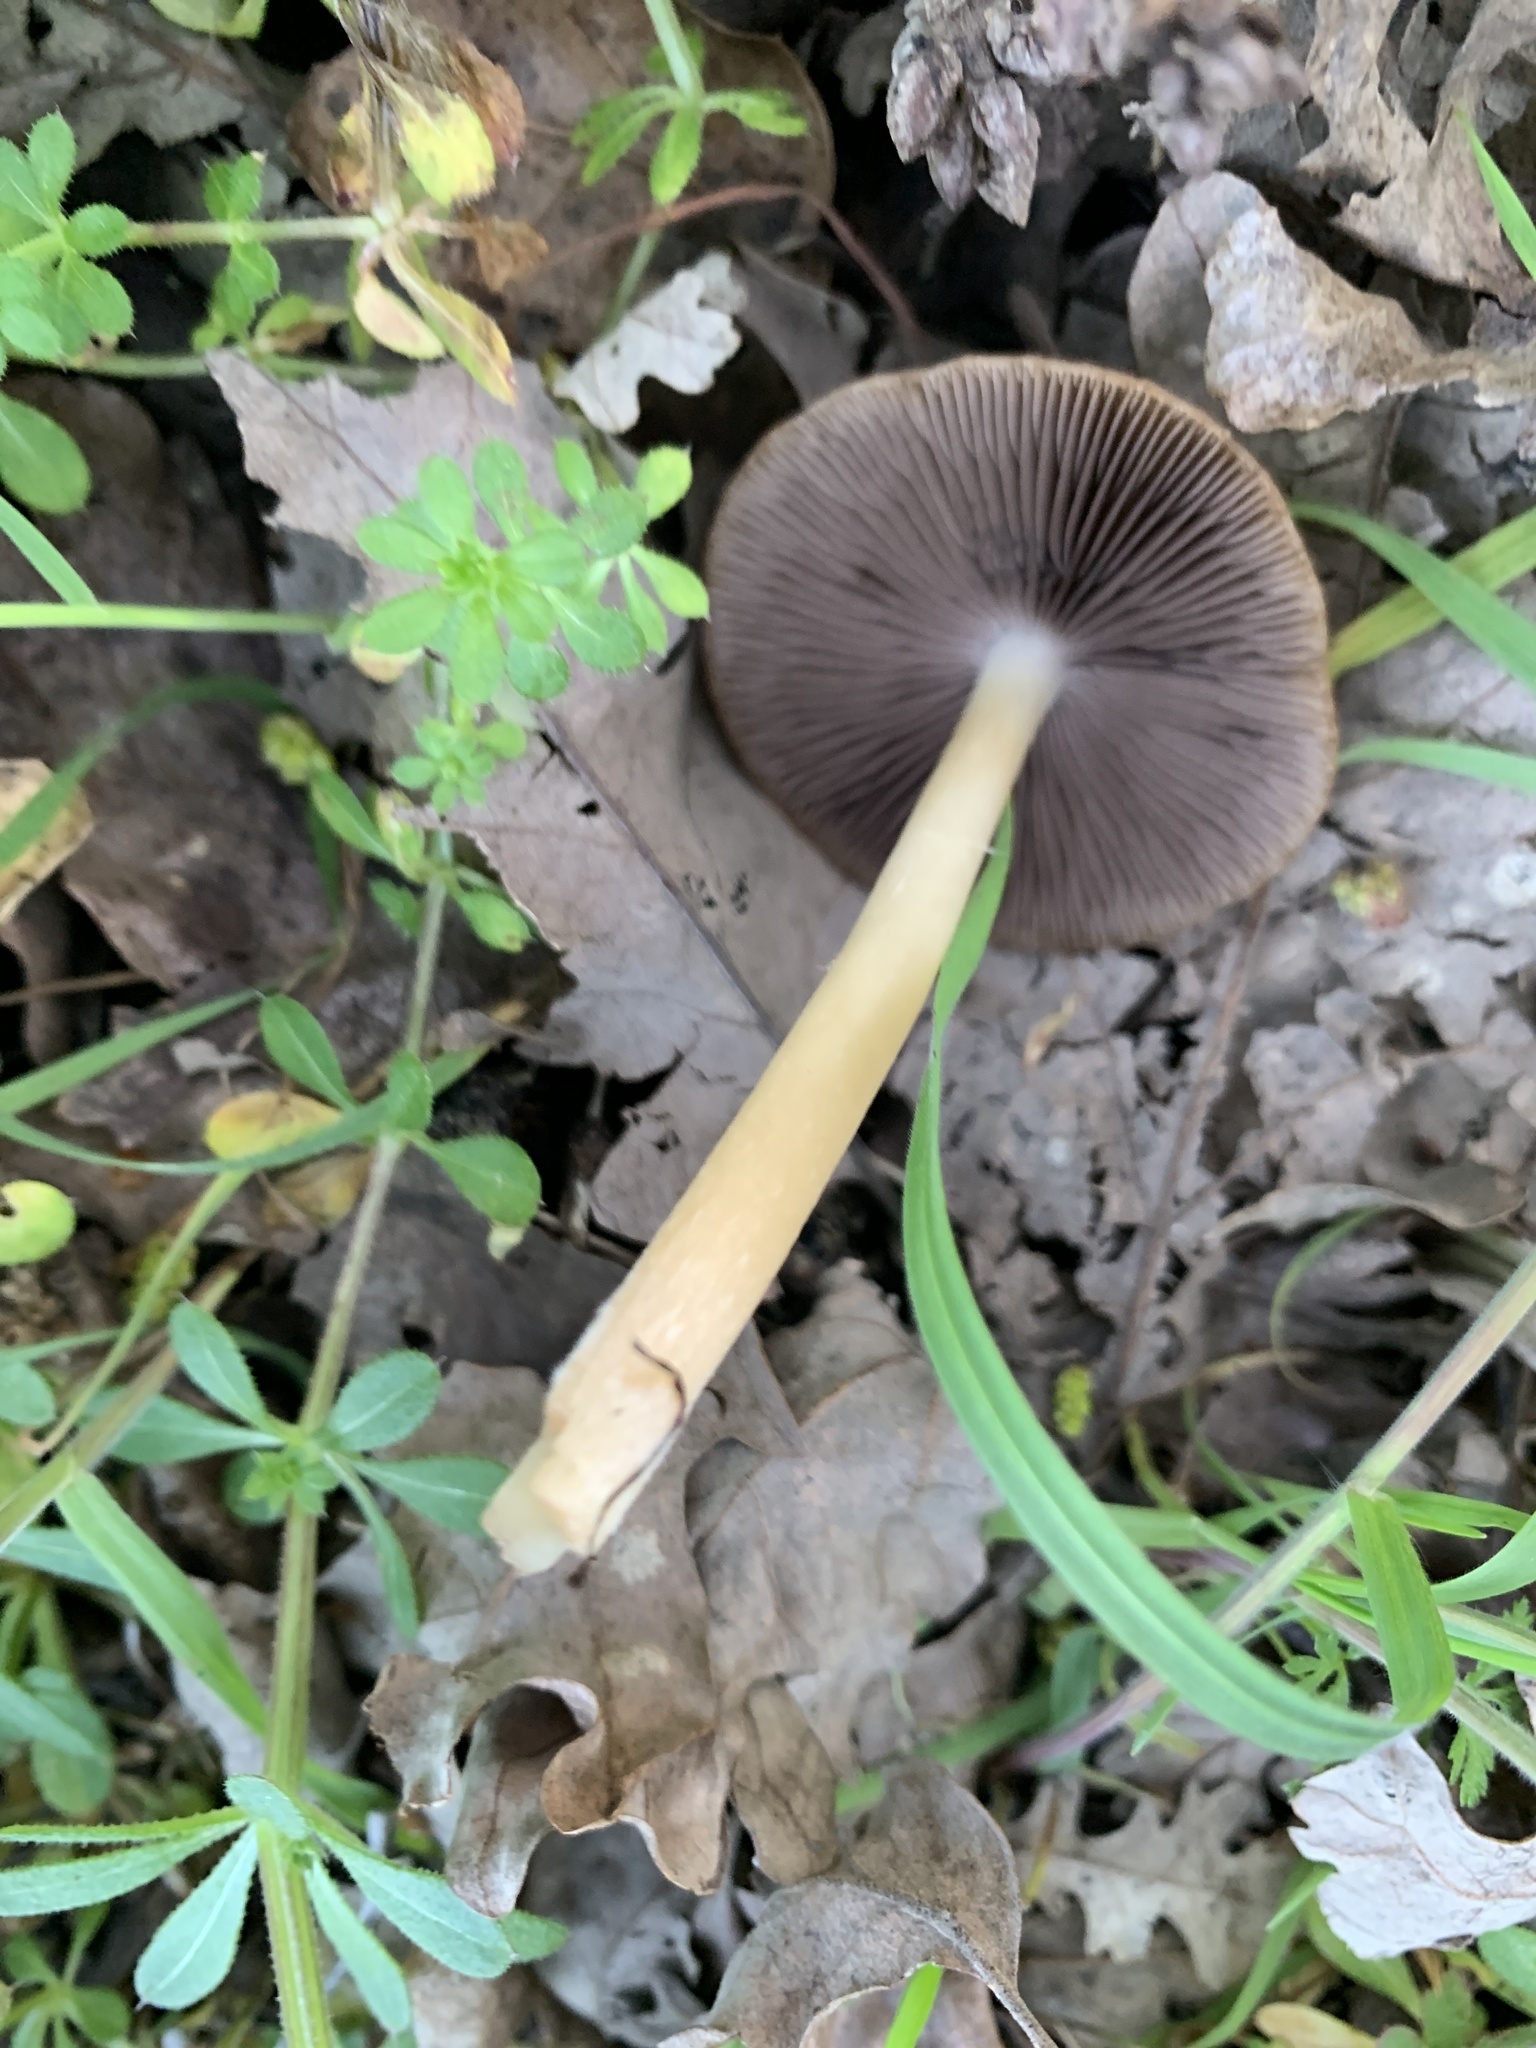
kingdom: Fungi
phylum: Basidiomycota
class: Agaricomycetes
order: Agaricales
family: Psathyrellaceae
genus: Psathyrella
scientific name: Psathyrella praetenuis
